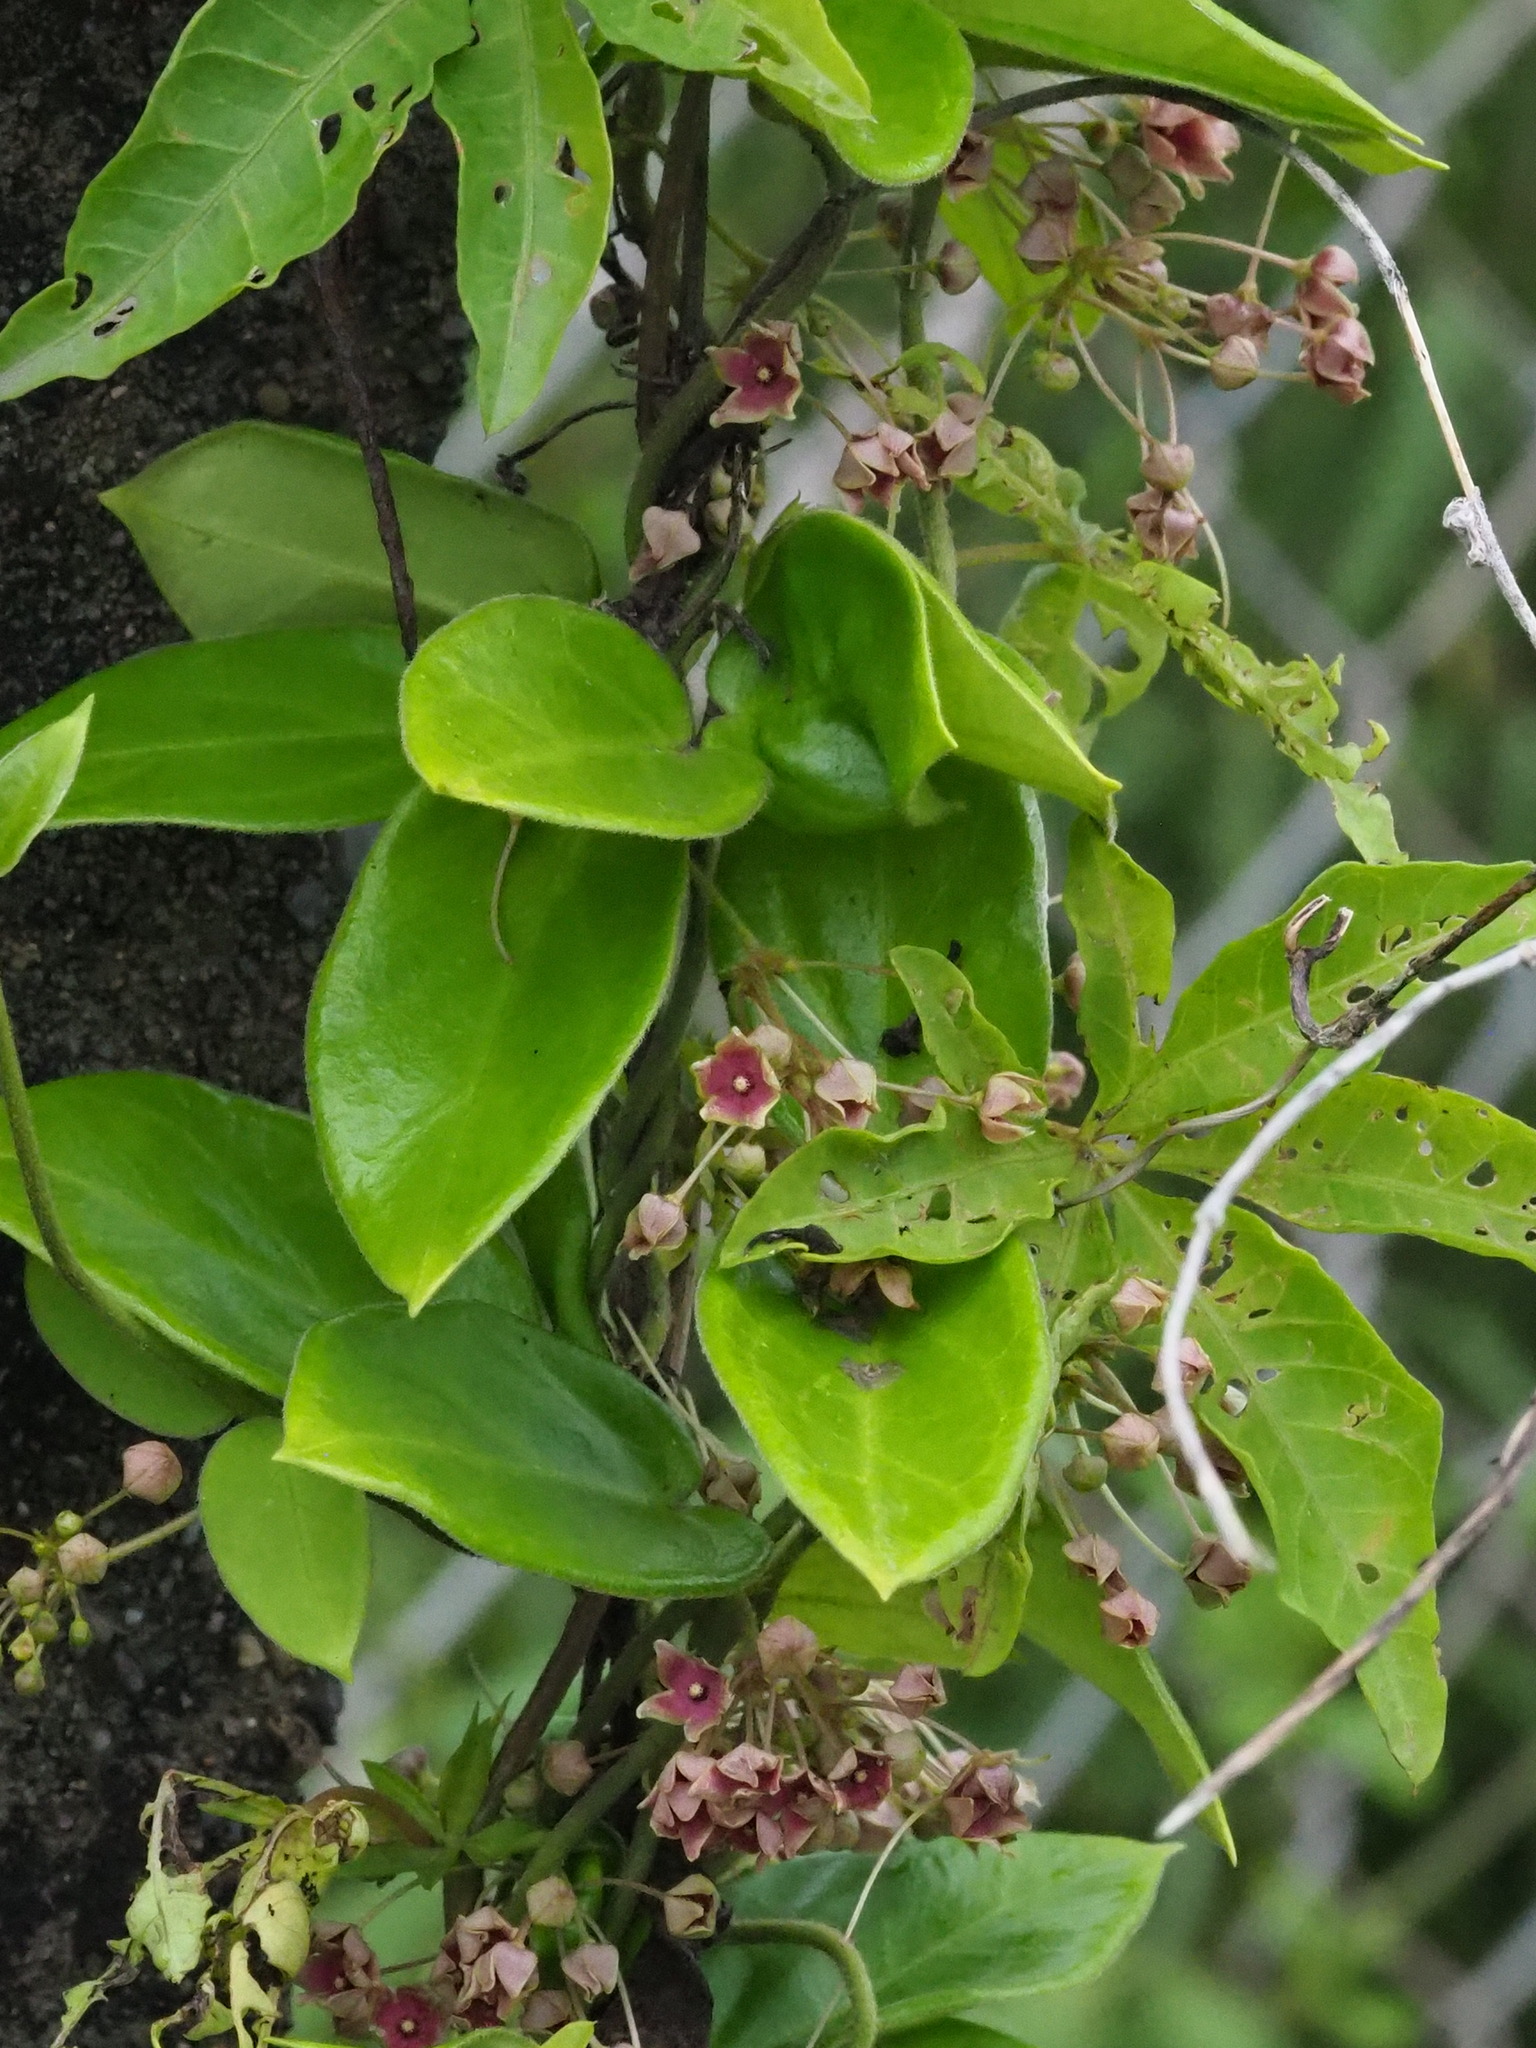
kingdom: Plantae
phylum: Tracheophyta
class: Magnoliopsida
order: Gentianales
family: Apocynaceae
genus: Vincetoxicum
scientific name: Vincetoxicum hirsutum
